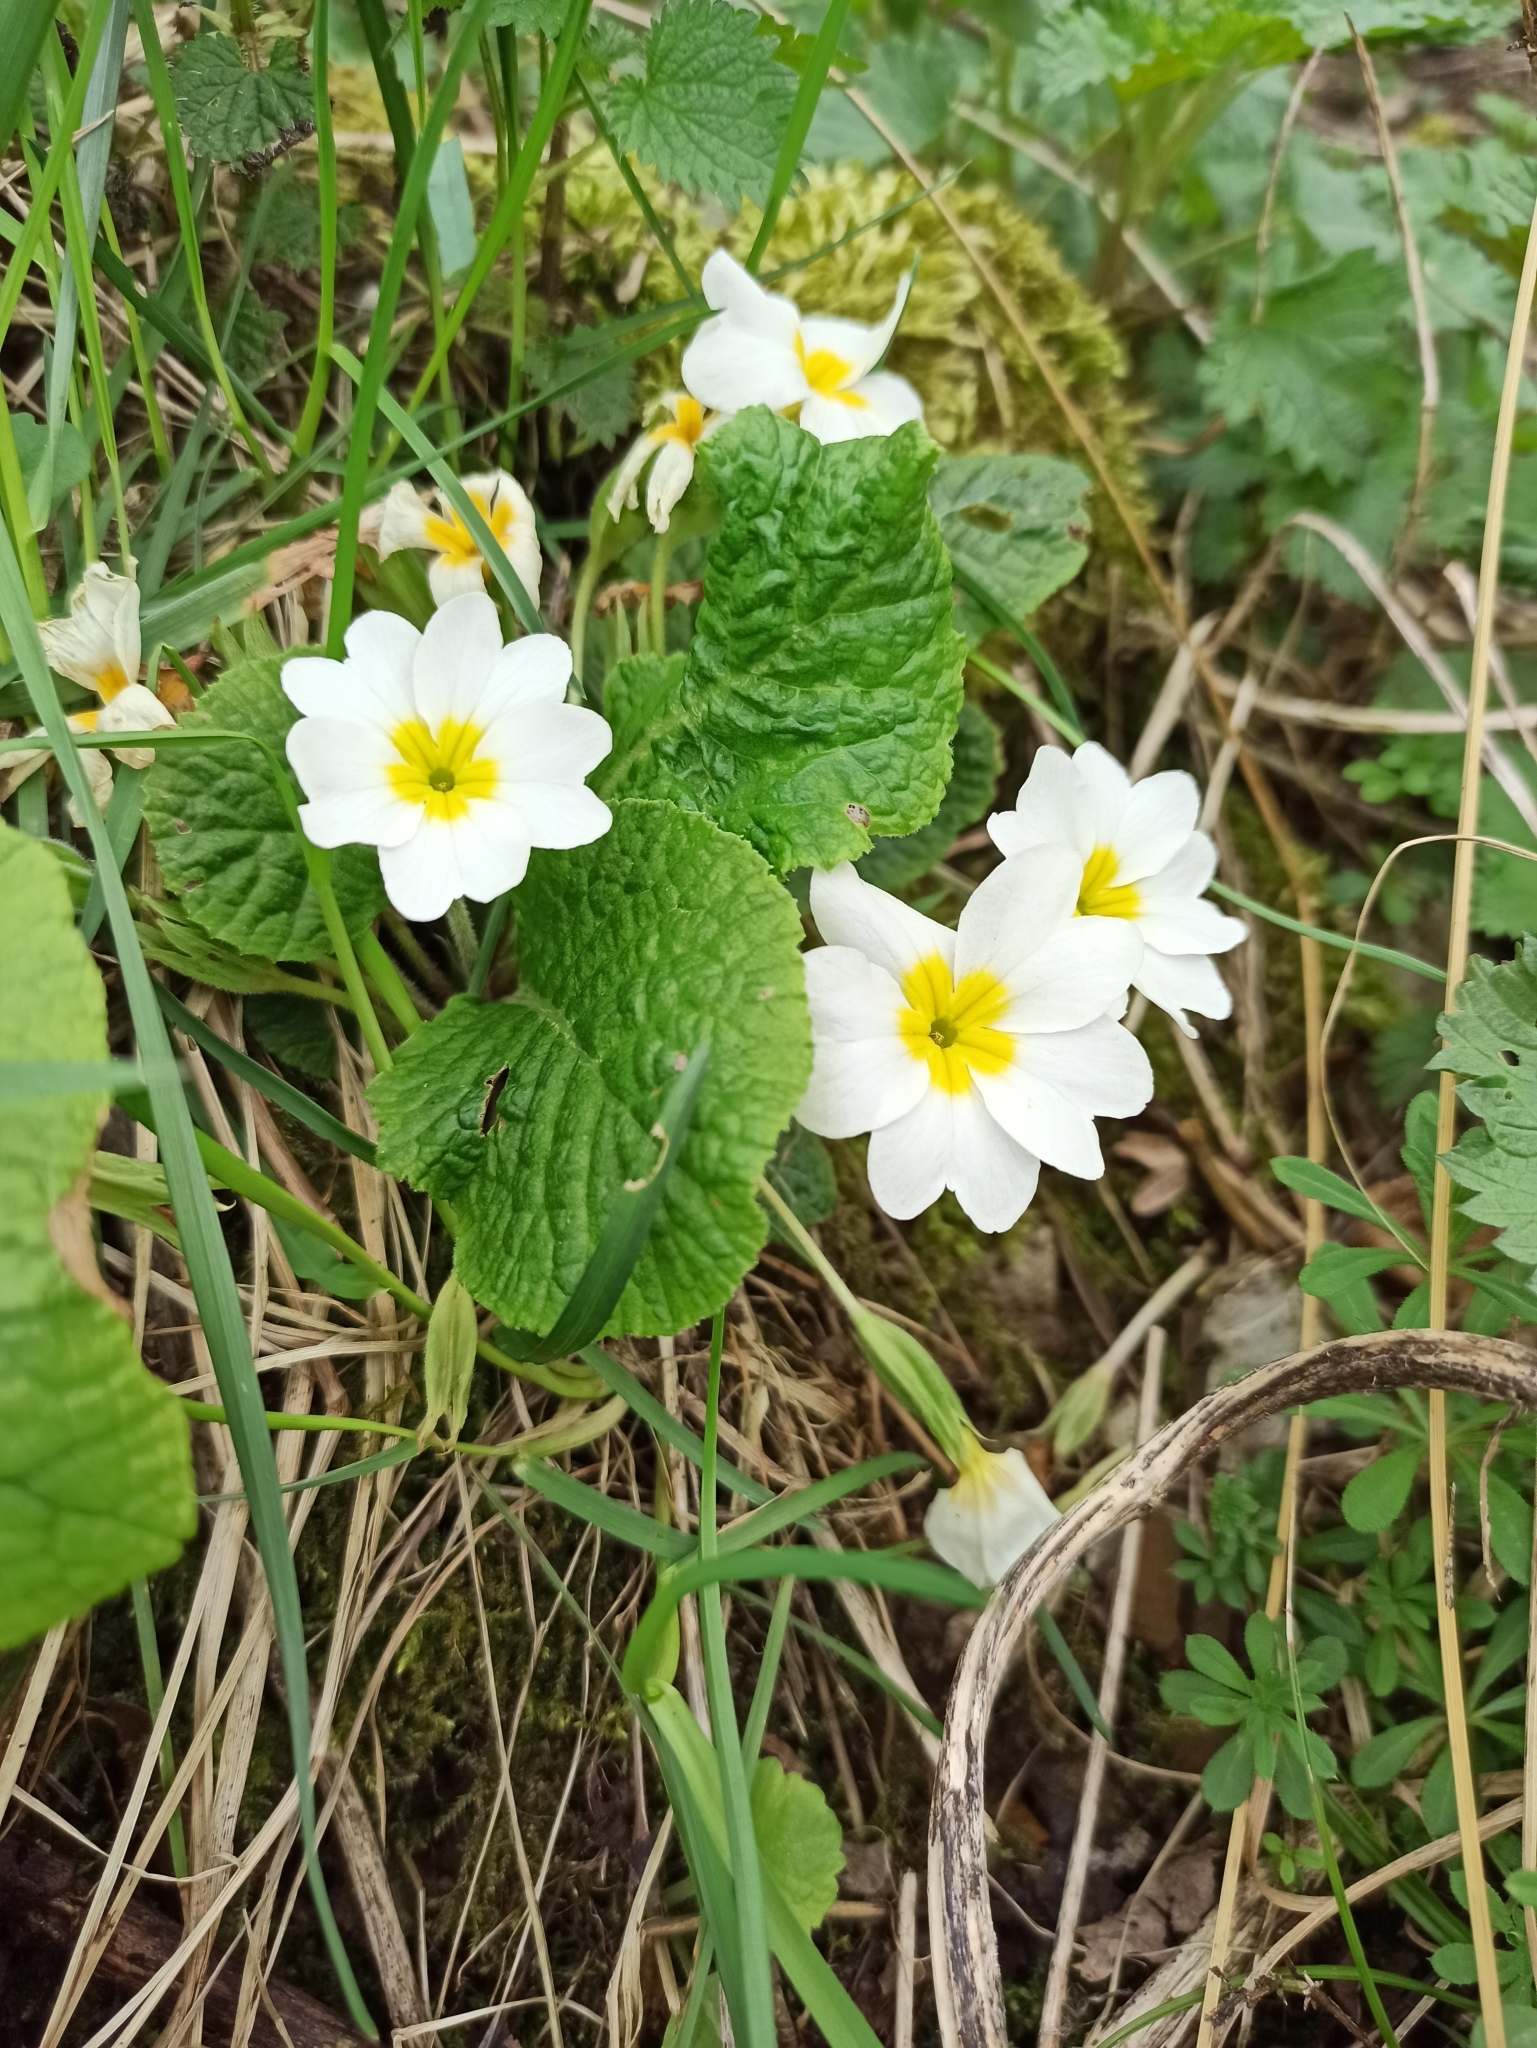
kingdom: Plantae
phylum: Tracheophyta
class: Magnoliopsida
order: Ericales
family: Primulaceae
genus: Primula
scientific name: Primula vulgaris
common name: Primrose
